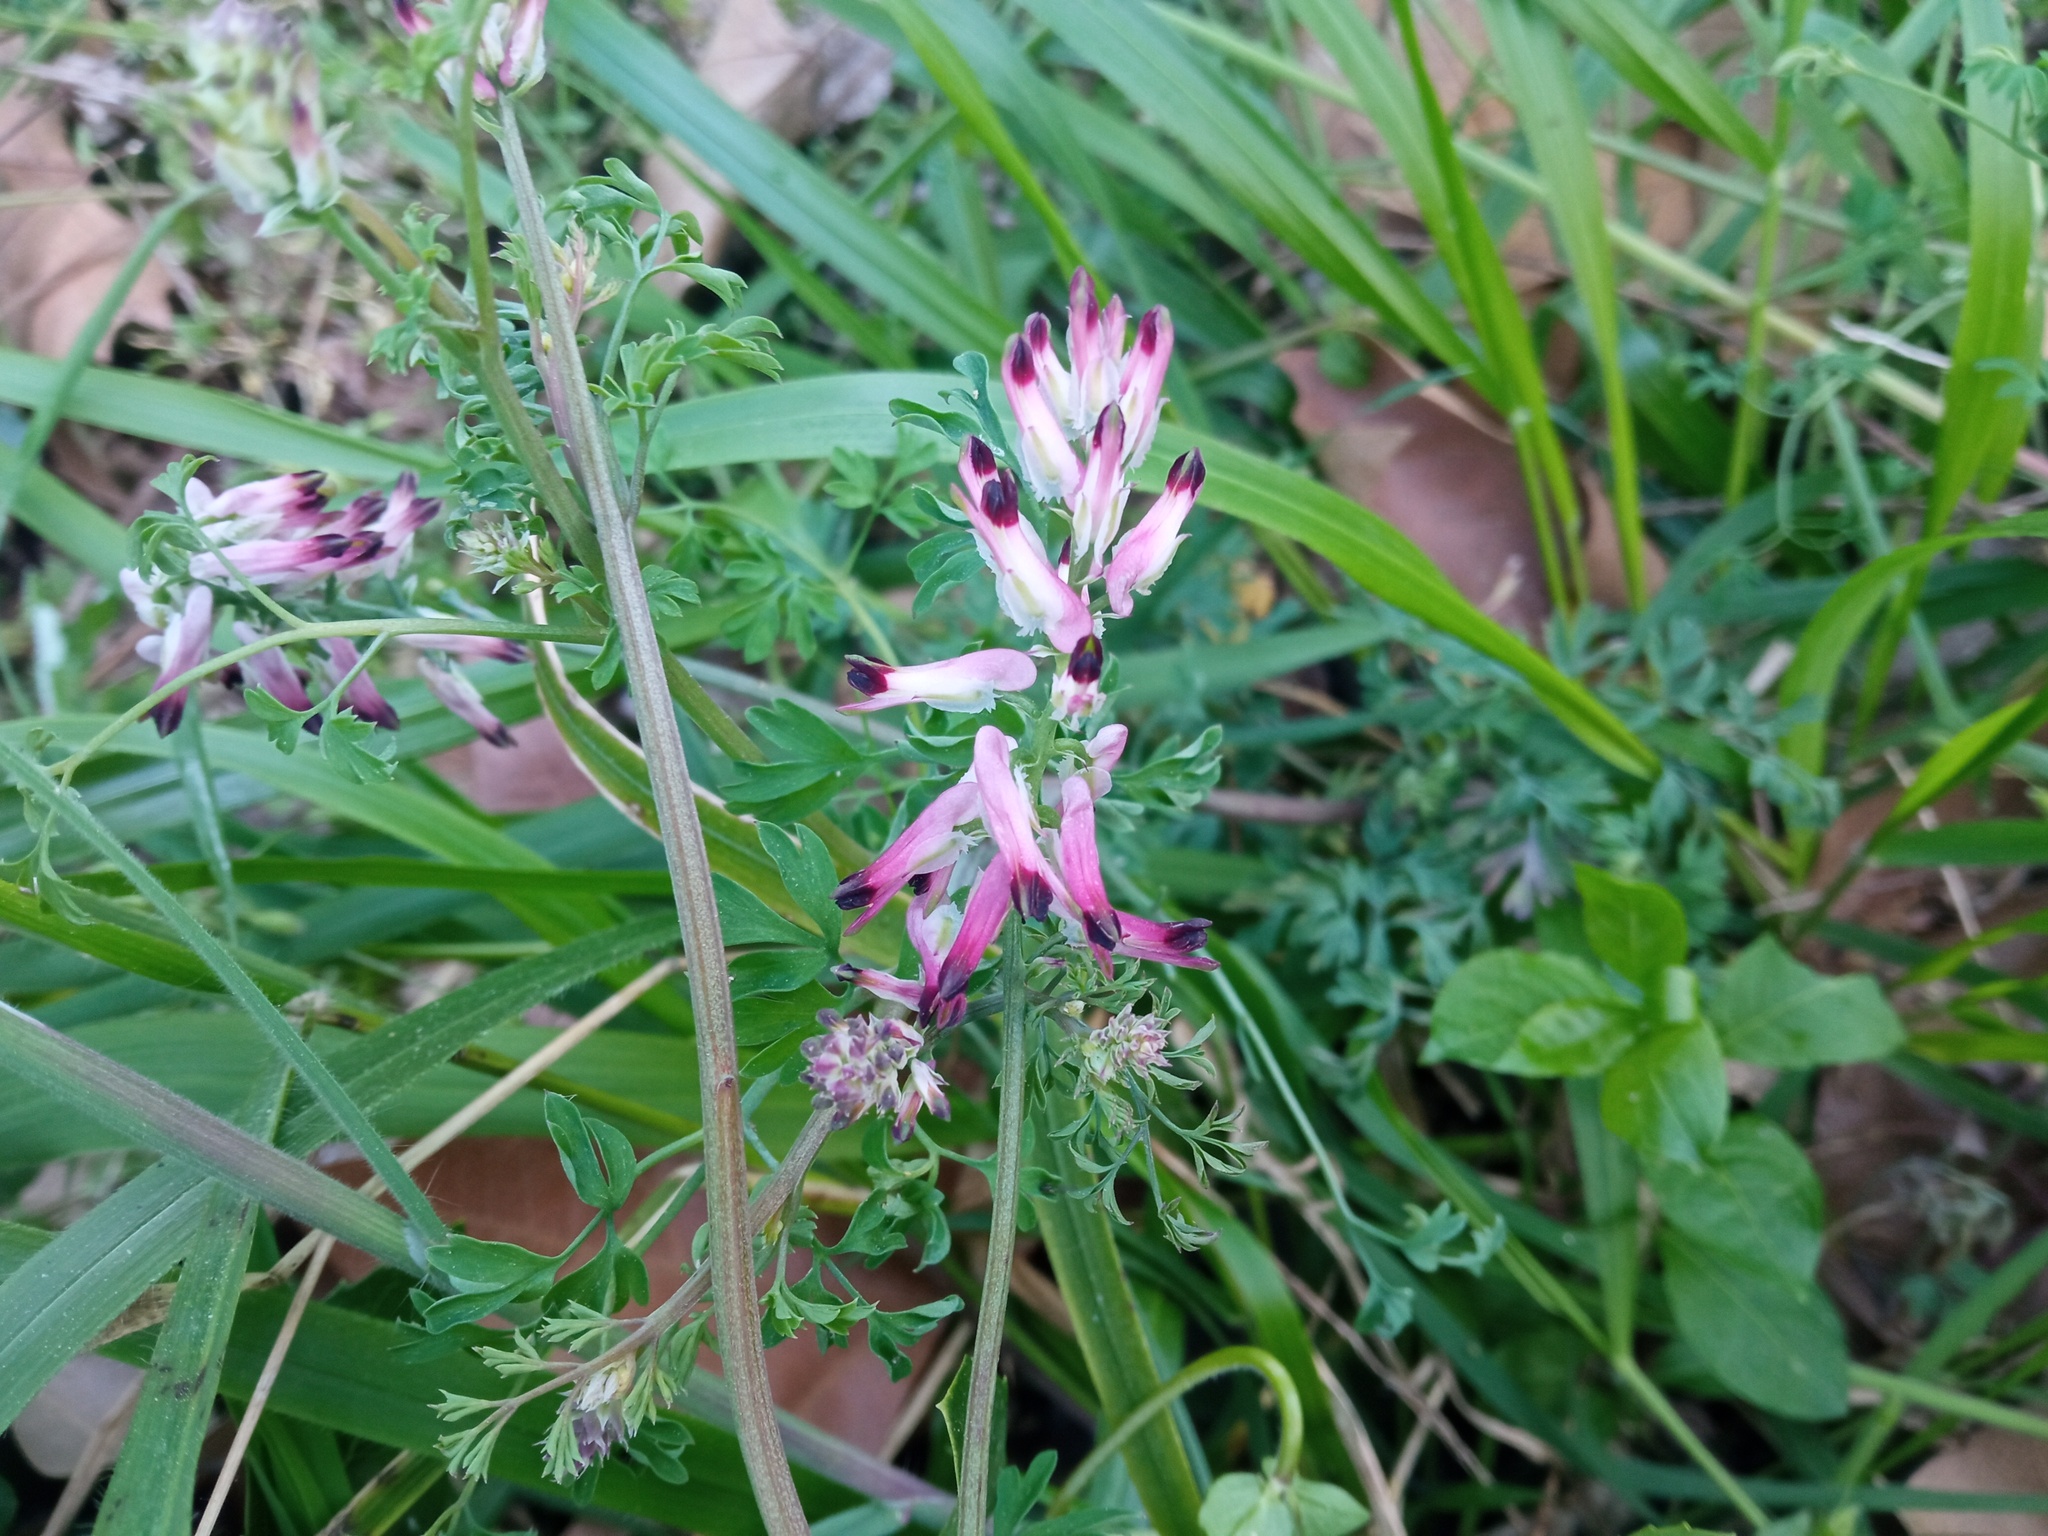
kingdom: Plantae
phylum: Tracheophyta
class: Magnoliopsida
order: Ranunculales
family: Papaveraceae
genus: Fumaria
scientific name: Fumaria capreolata
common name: White ramping-fumitory
